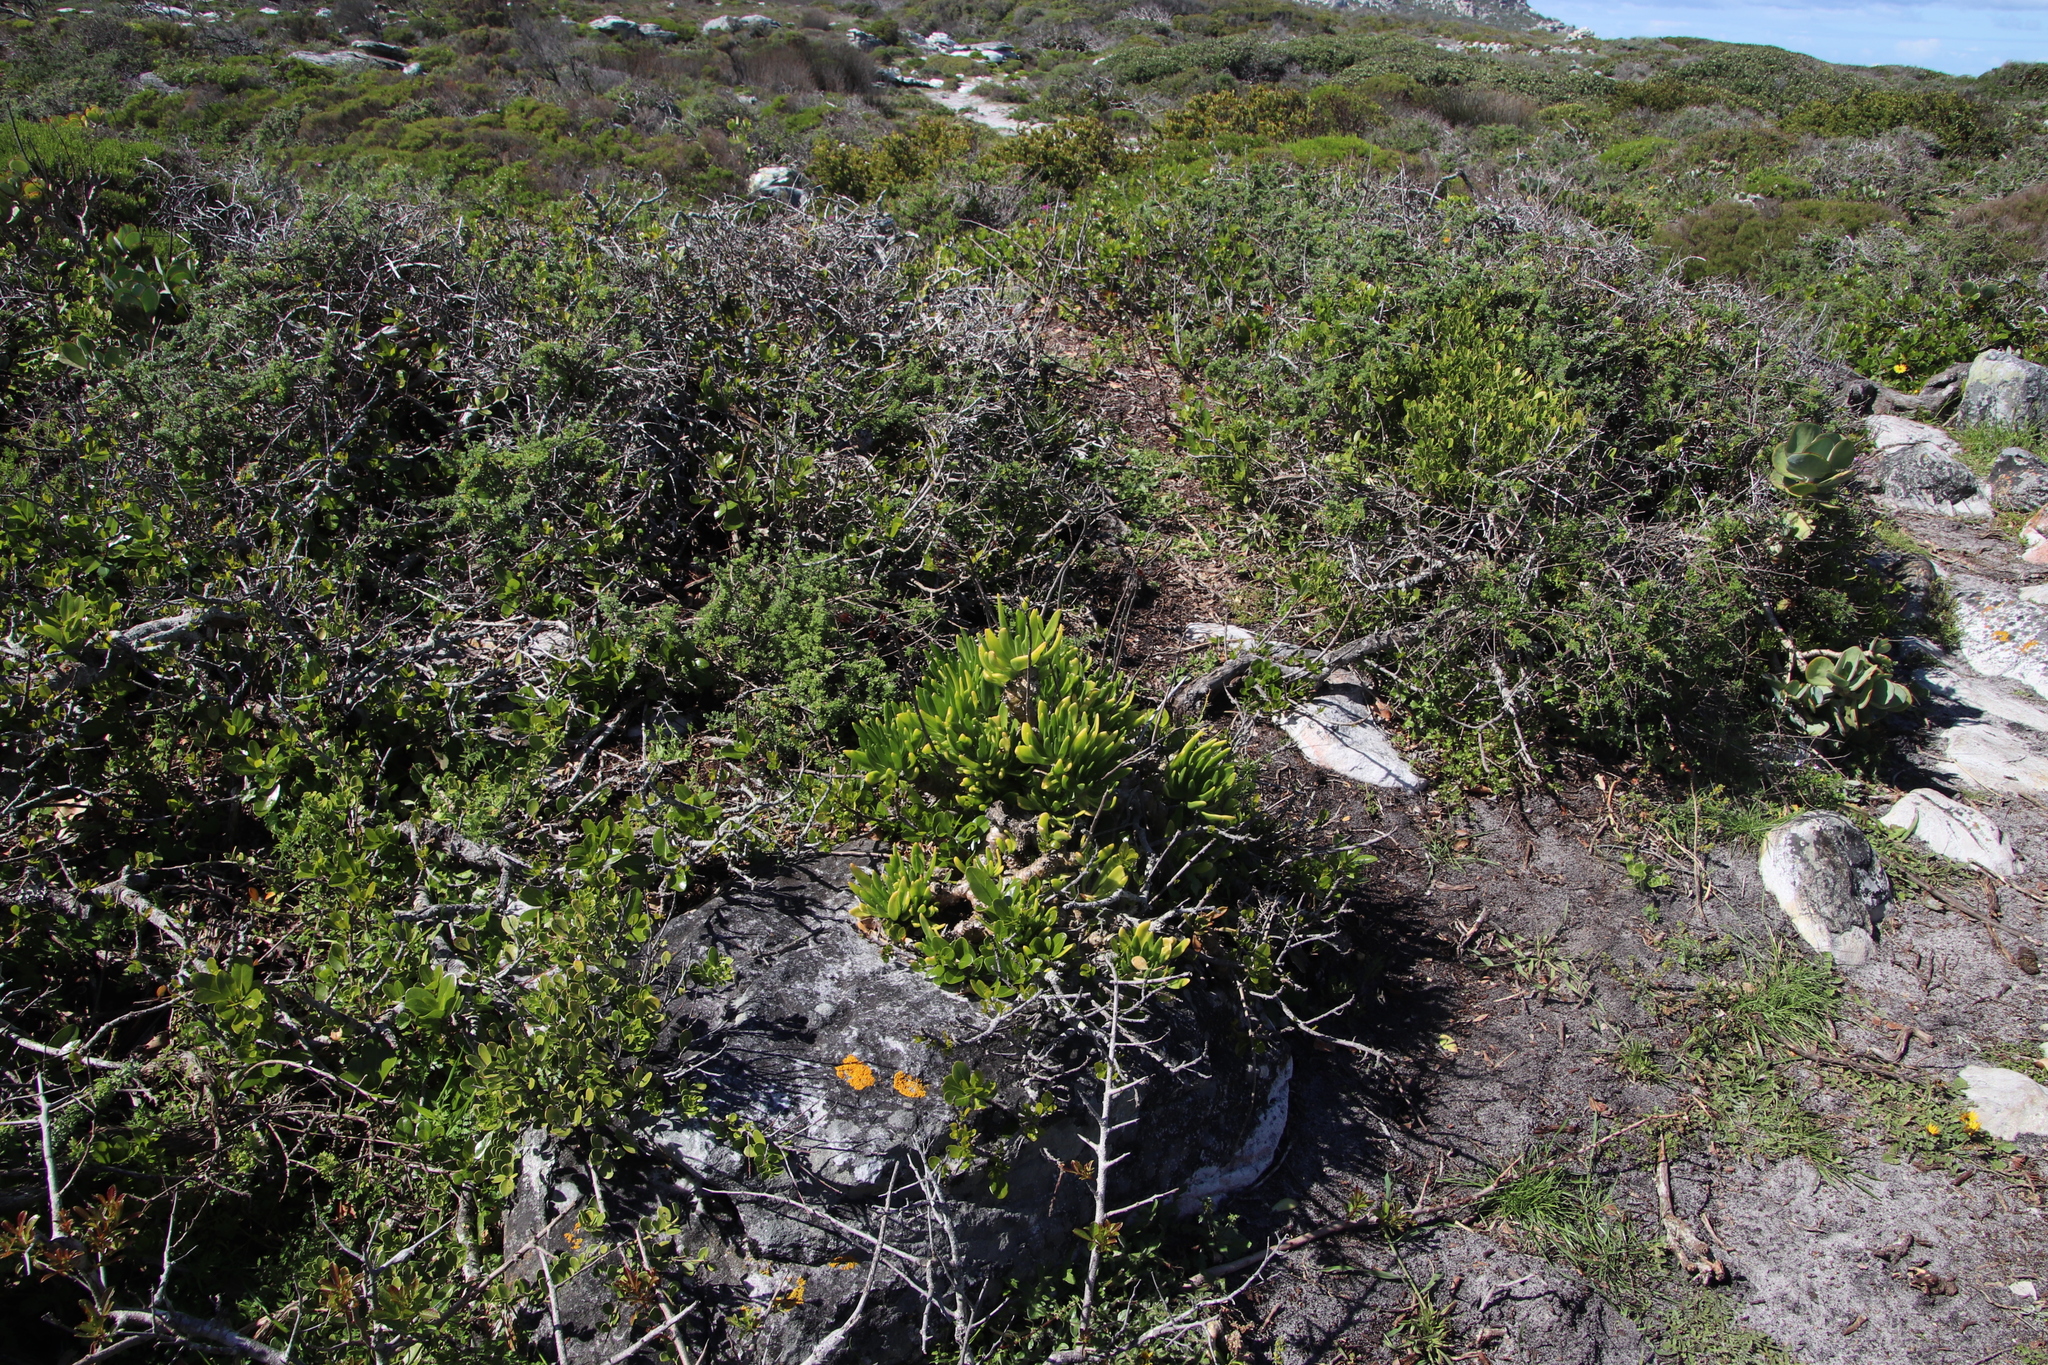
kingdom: Plantae
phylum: Tracheophyta
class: Magnoliopsida
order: Saxifragales
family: Crassulaceae
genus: Tylecodon
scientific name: Tylecodon grandiflorus
